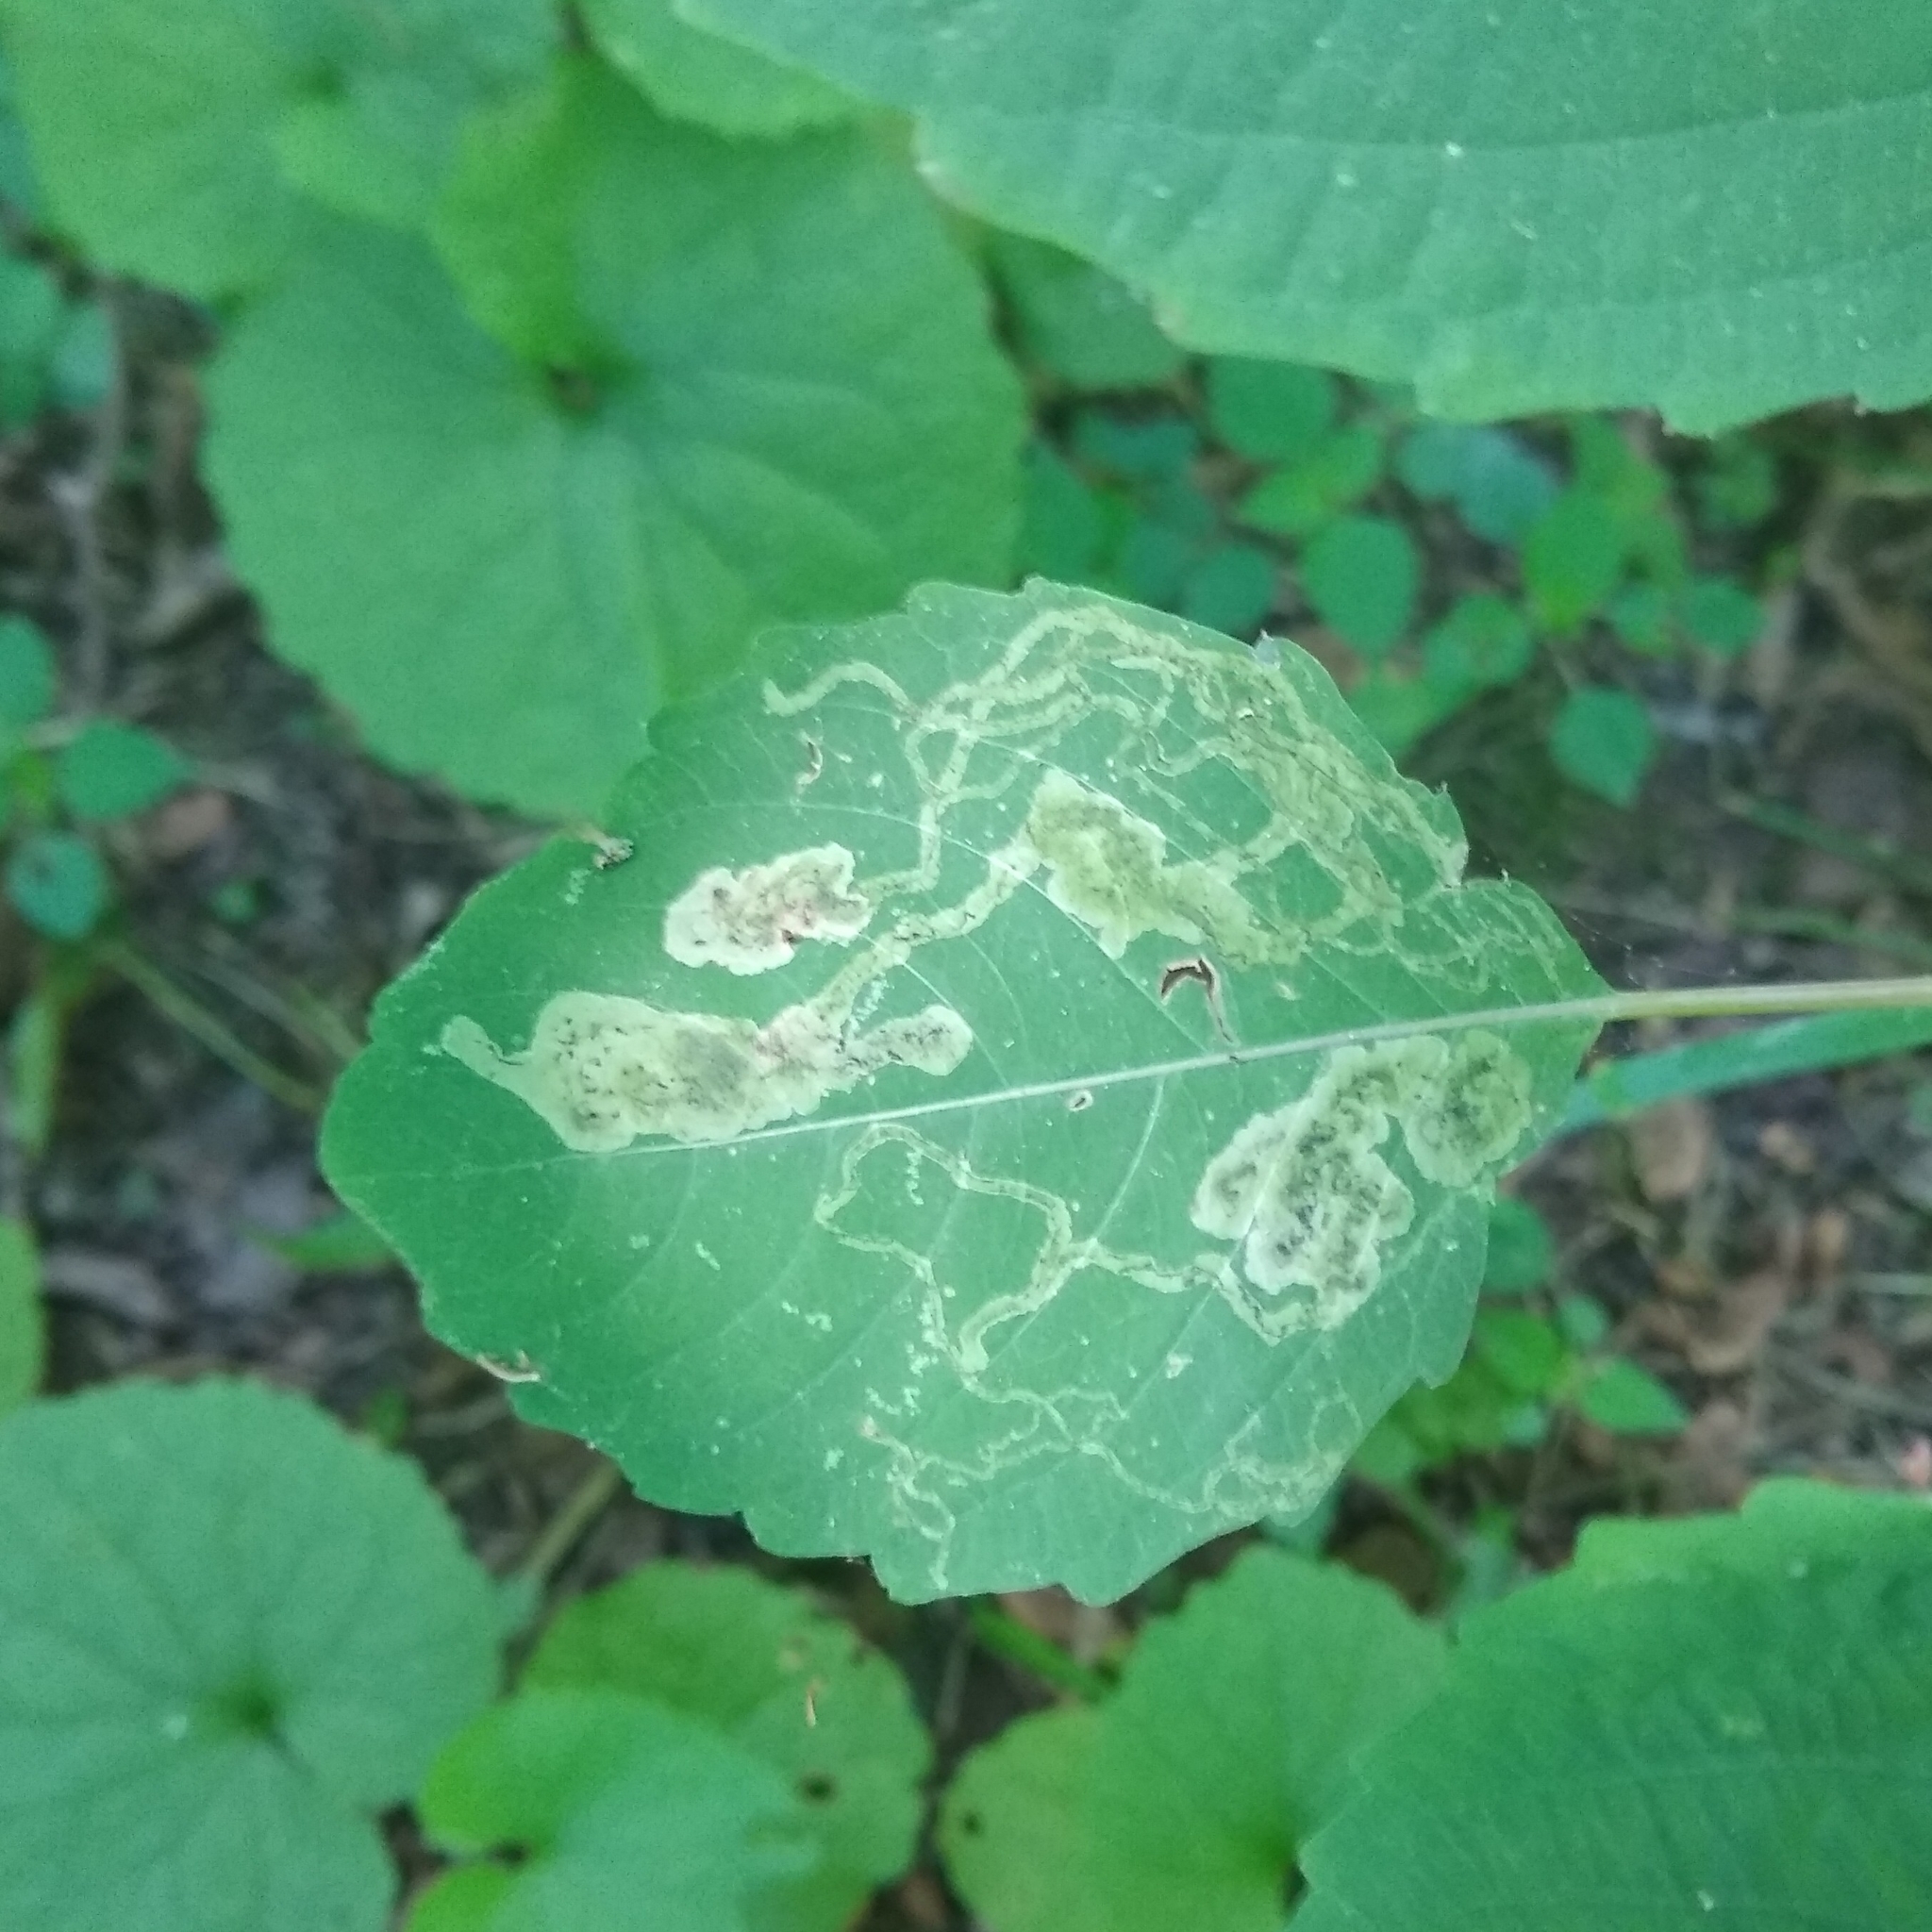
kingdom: Animalia
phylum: Arthropoda
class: Insecta
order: Diptera
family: Agromyzidae
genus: Phytoliriomyza
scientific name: Phytoliriomyza melampyga
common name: Jewelweed leaf-miner fly
